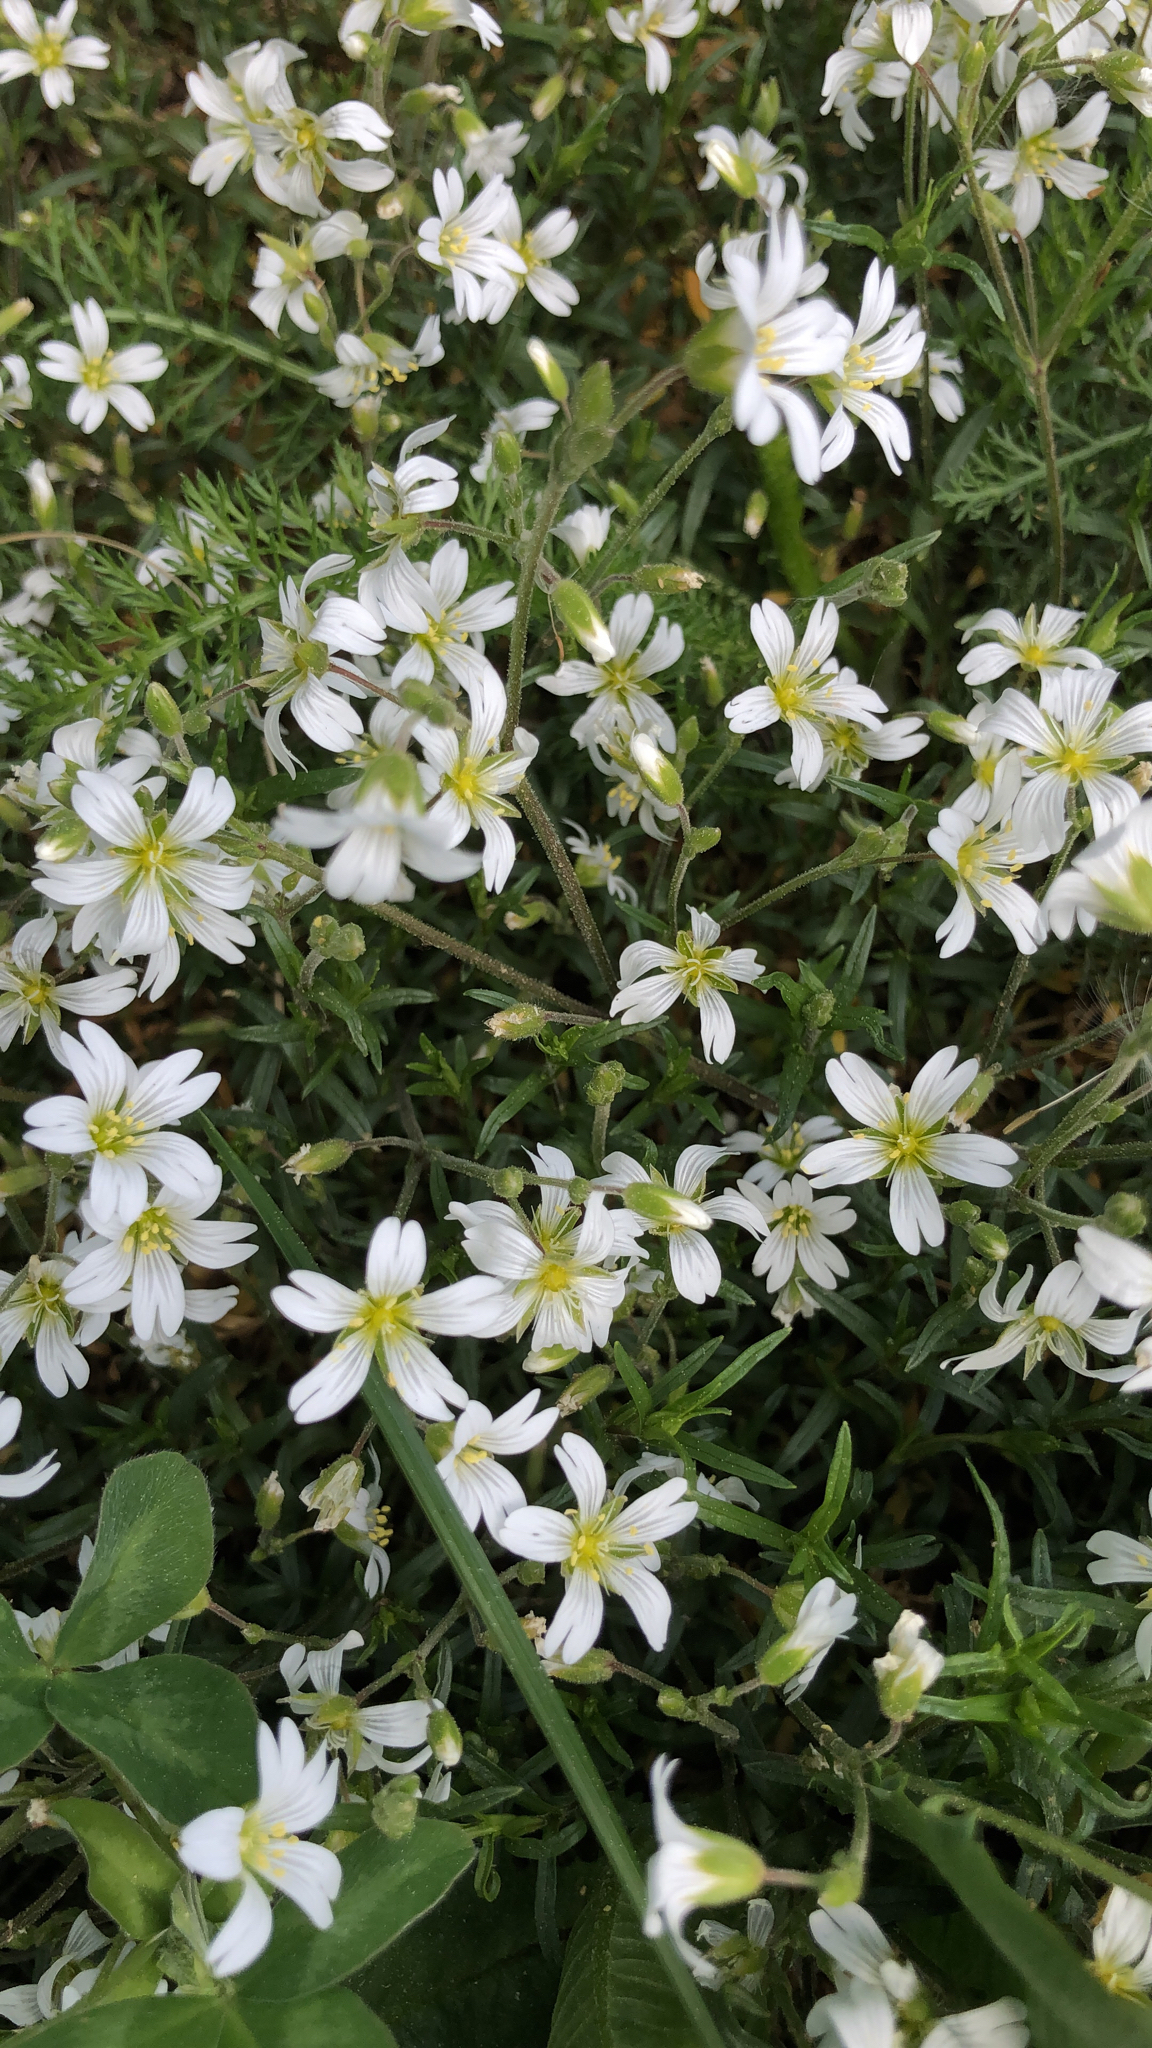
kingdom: Plantae
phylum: Tracheophyta
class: Magnoliopsida
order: Caryophyllales
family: Caryophyllaceae
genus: Cerastium
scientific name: Cerastium arvense
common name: Field mouse-ear
